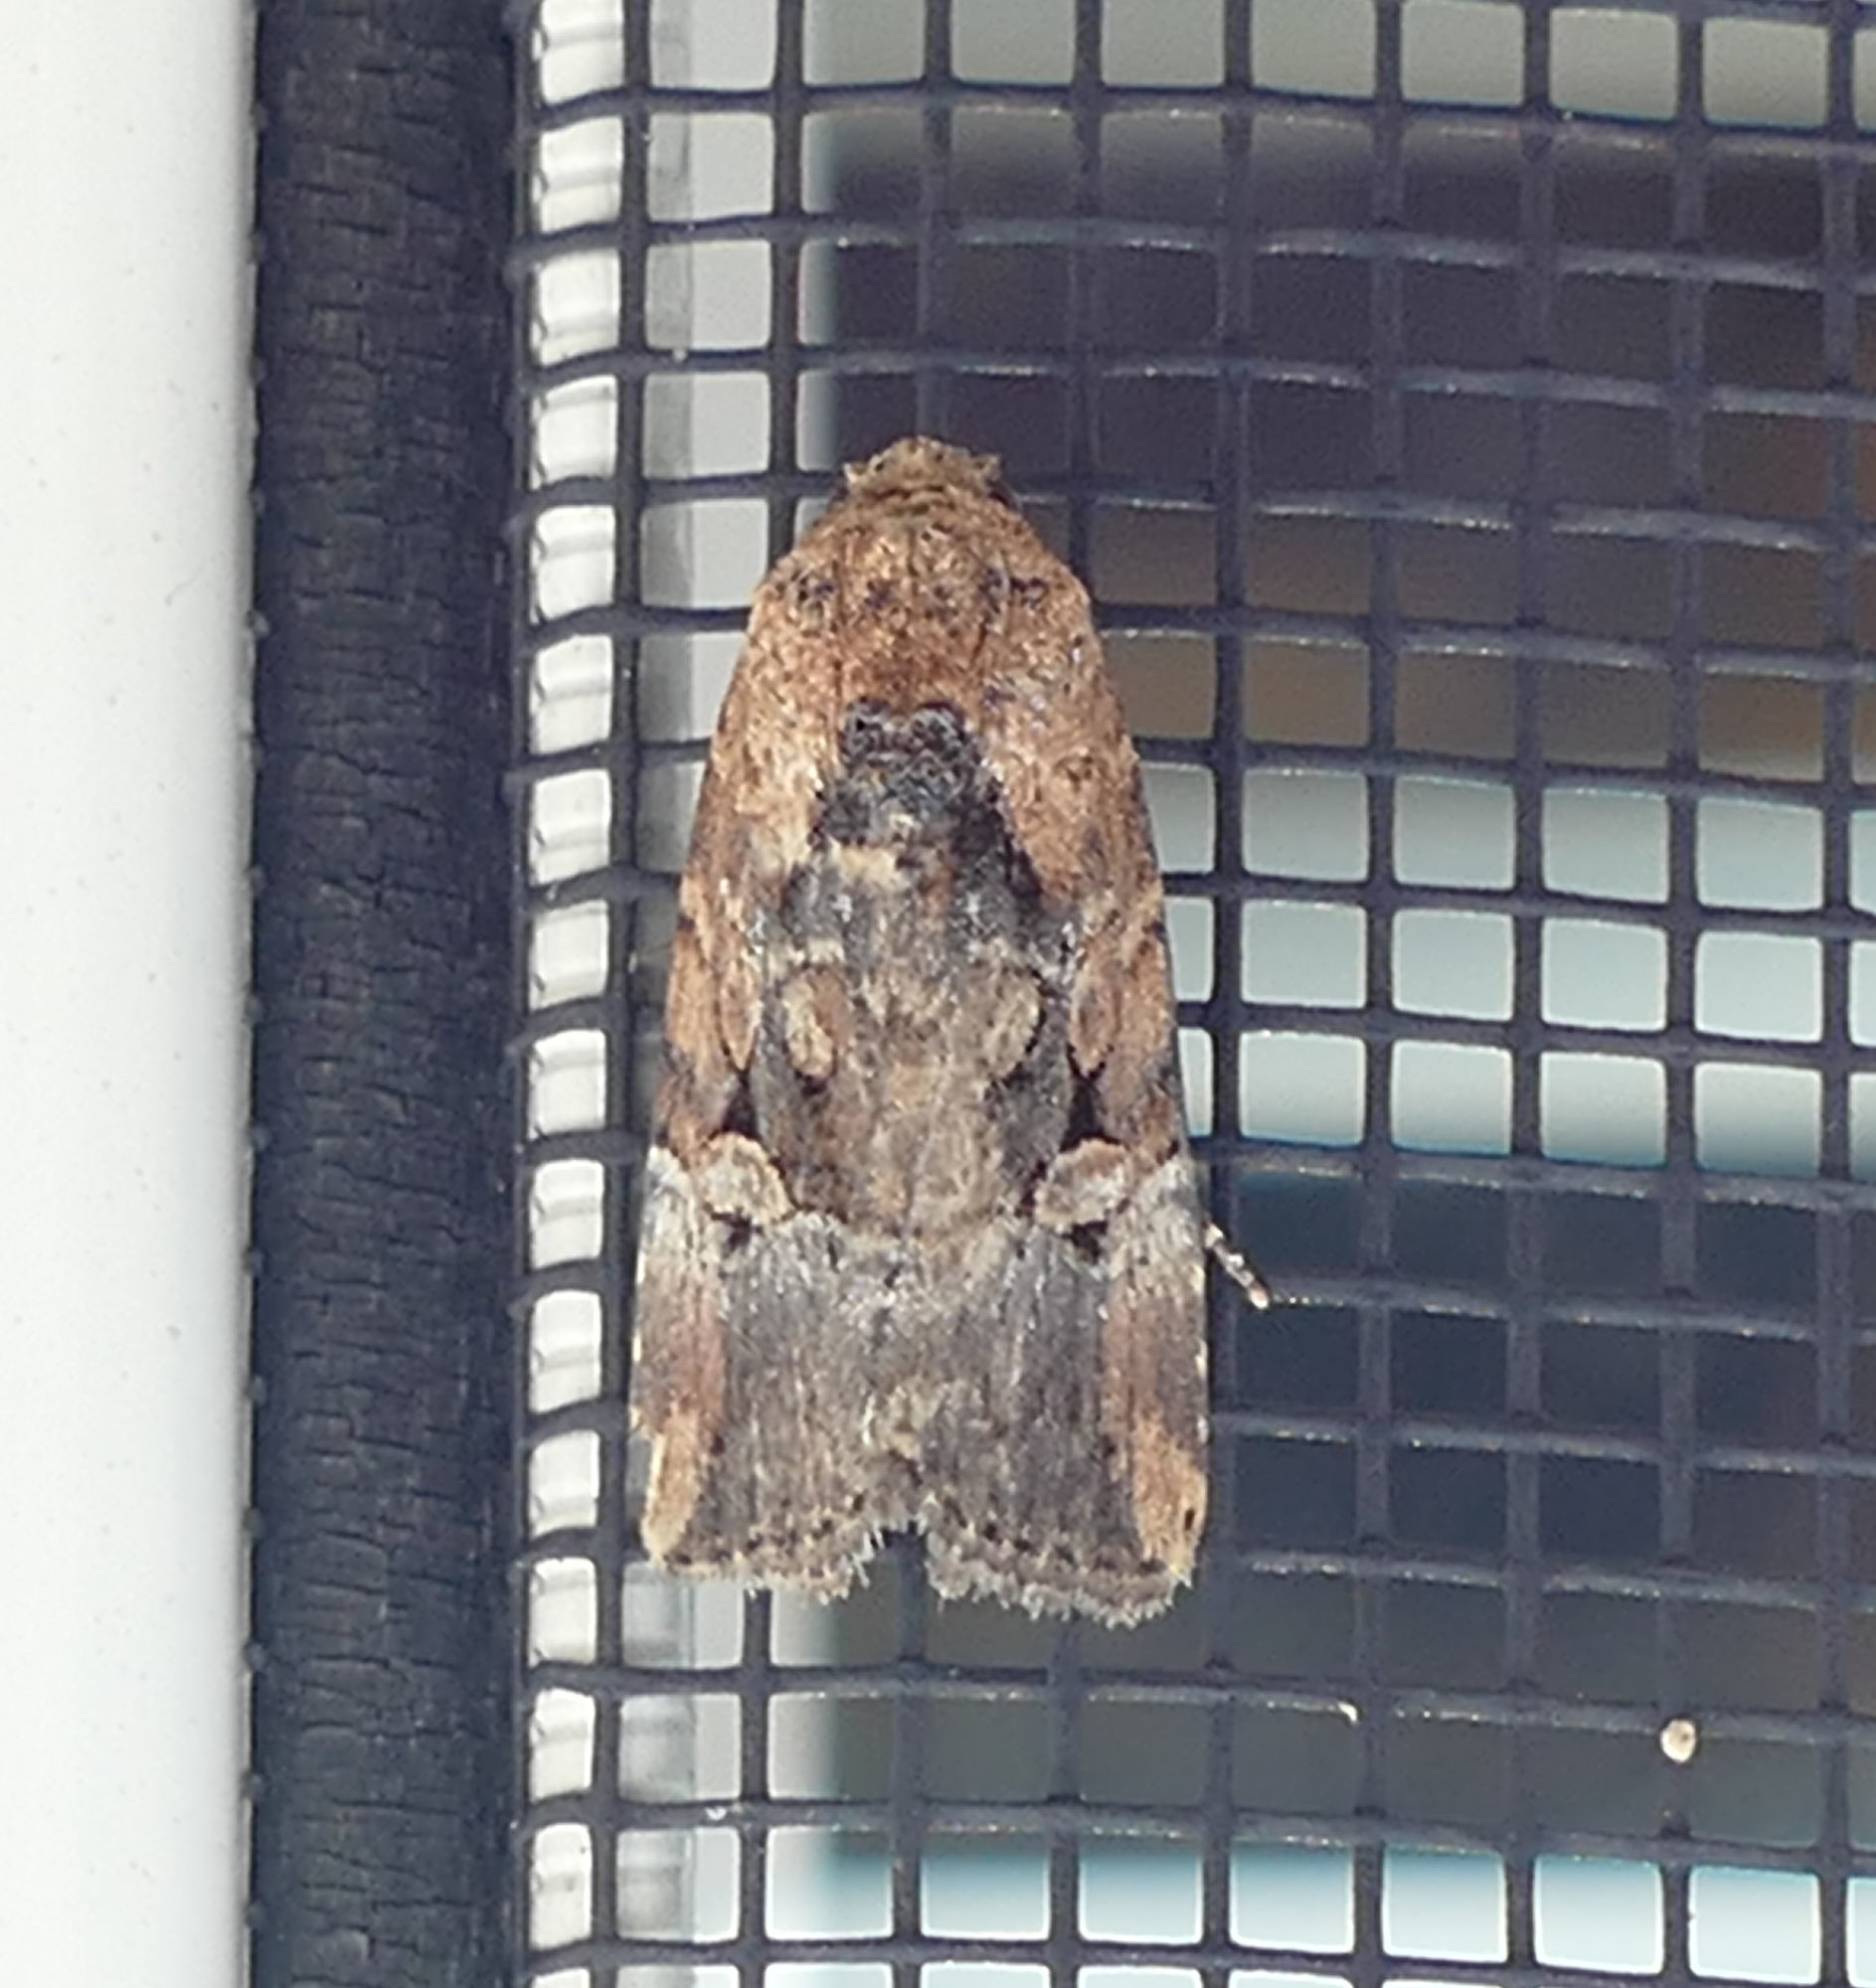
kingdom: Animalia
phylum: Arthropoda
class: Insecta
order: Lepidoptera
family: Noctuidae
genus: Elaphria
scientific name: Elaphria chalcedonia
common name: Chalcedony midget
